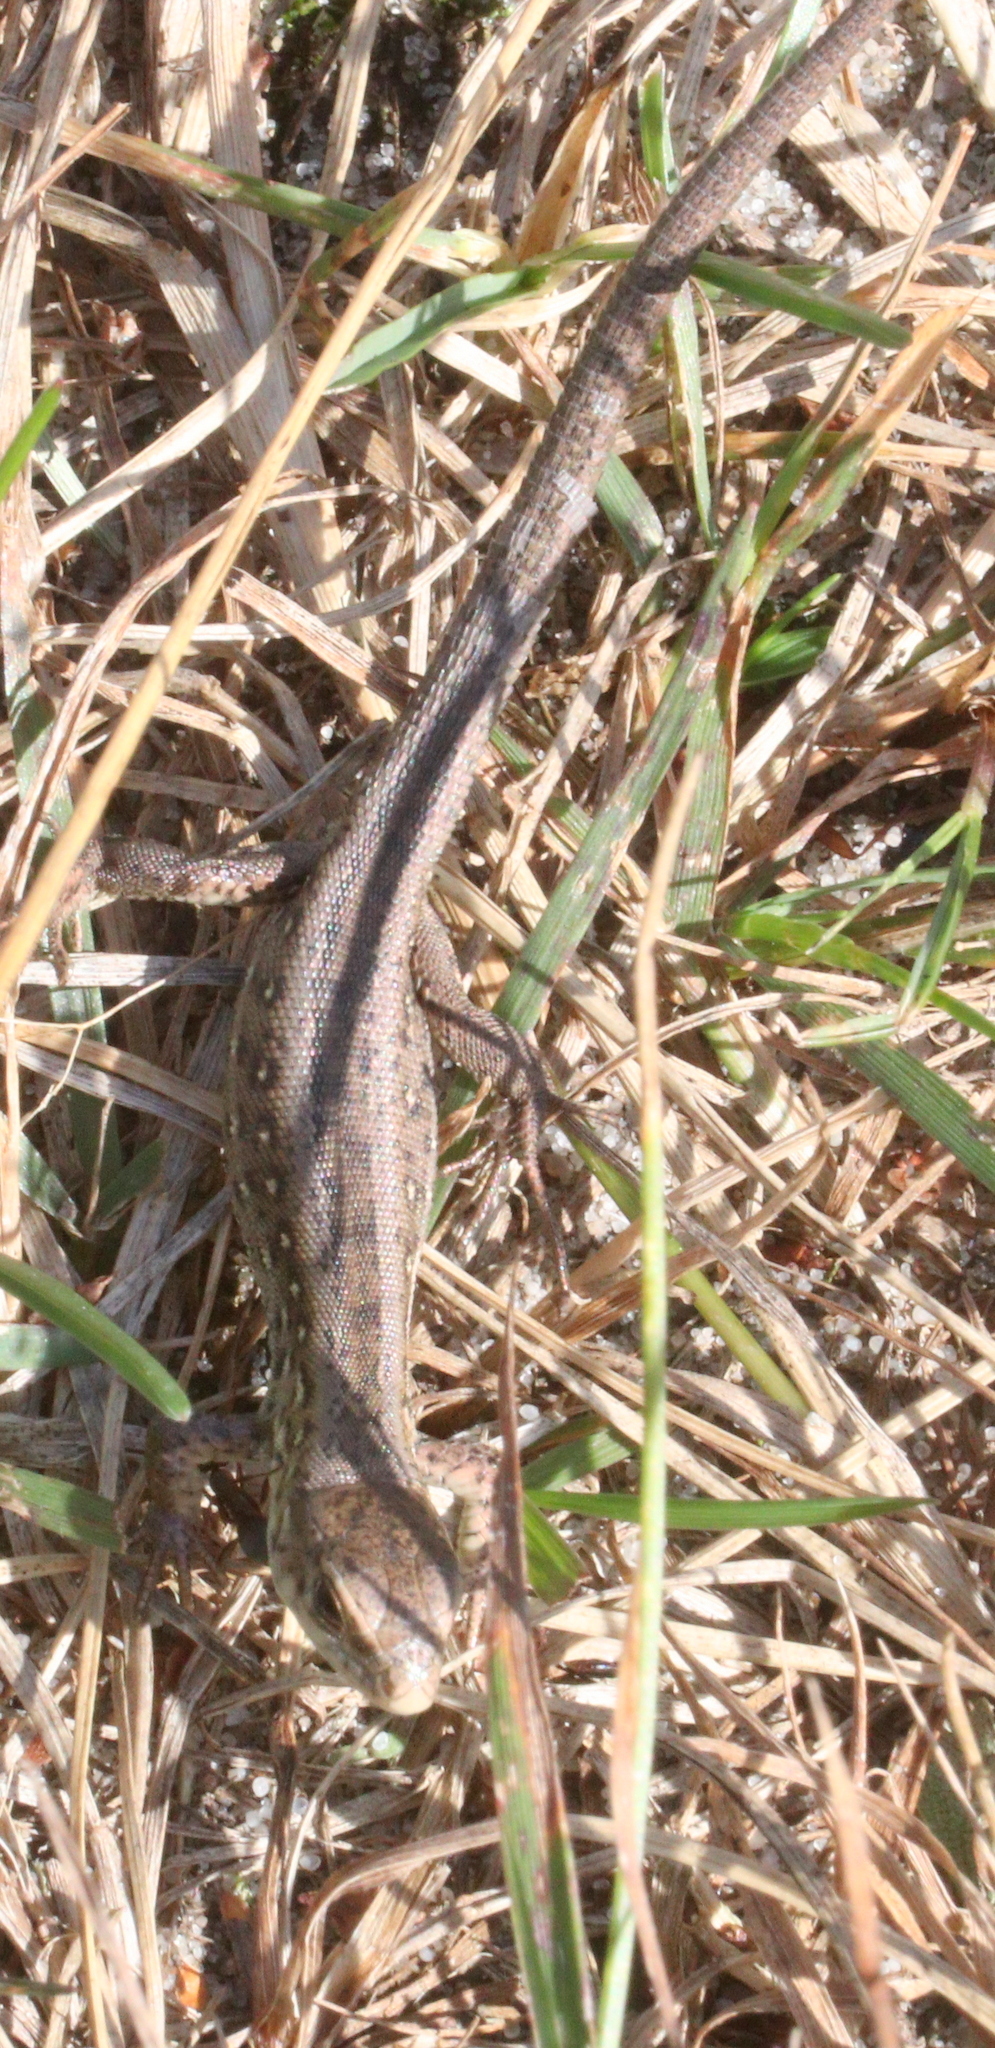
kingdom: Animalia
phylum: Chordata
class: Squamata
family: Lacertidae
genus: Lacerta
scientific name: Lacerta agilis
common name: Sand lizard
